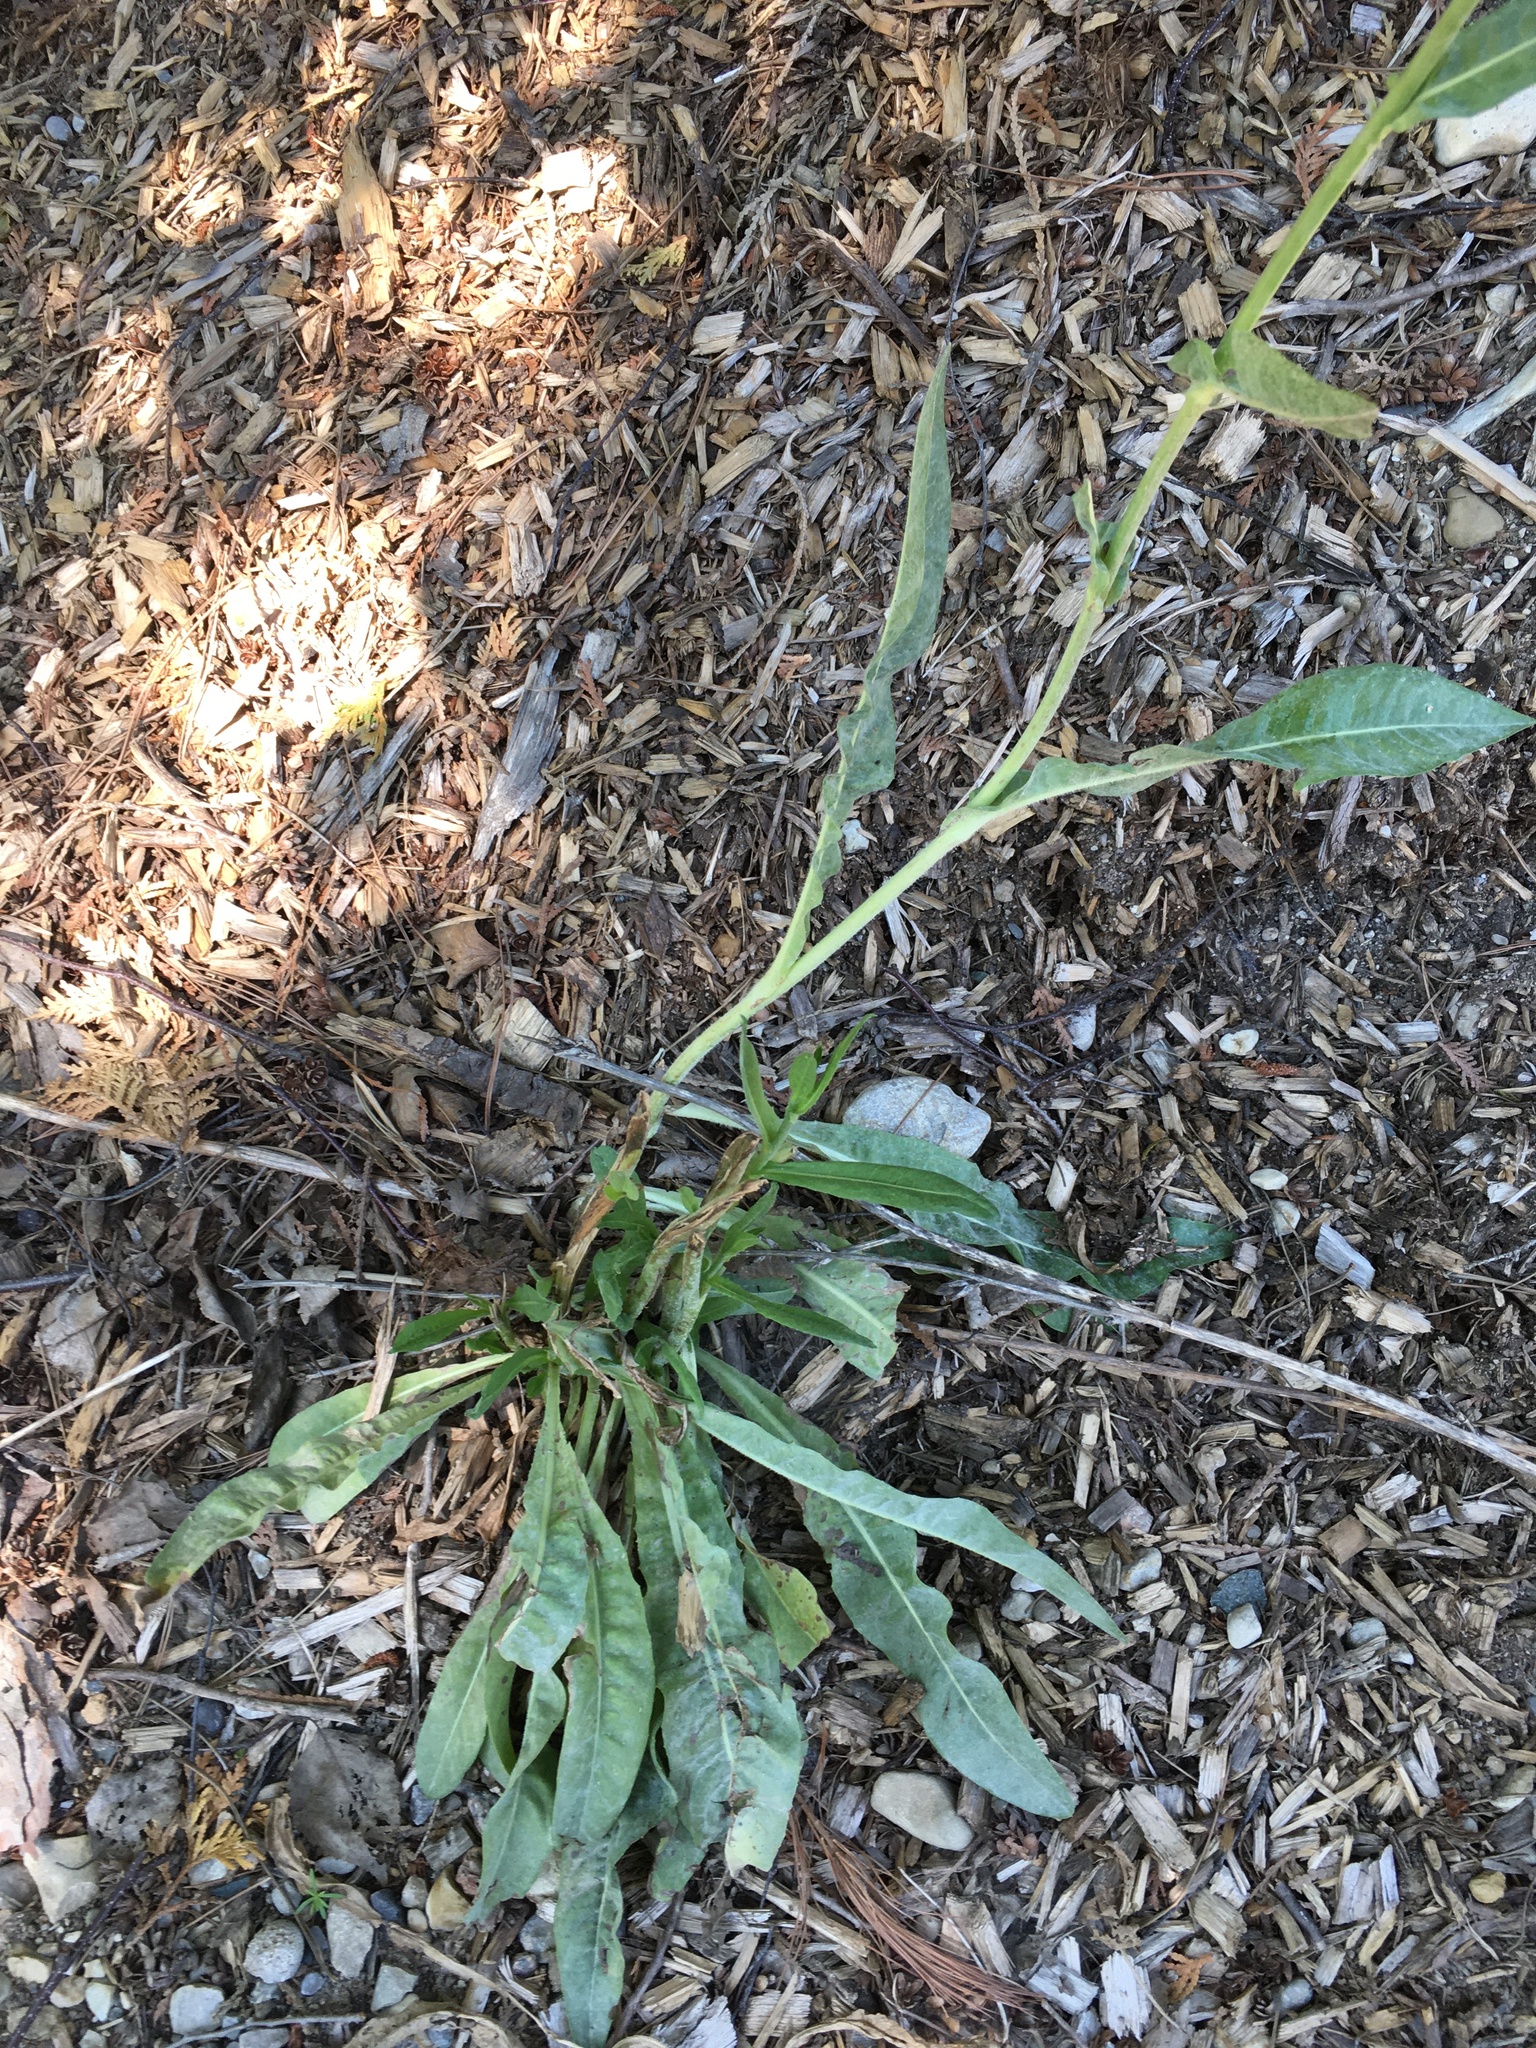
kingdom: Plantae
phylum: Tracheophyta
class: Magnoliopsida
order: Asterales
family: Asteraceae
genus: Cichorium
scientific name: Cichorium intybus
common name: Chicory
